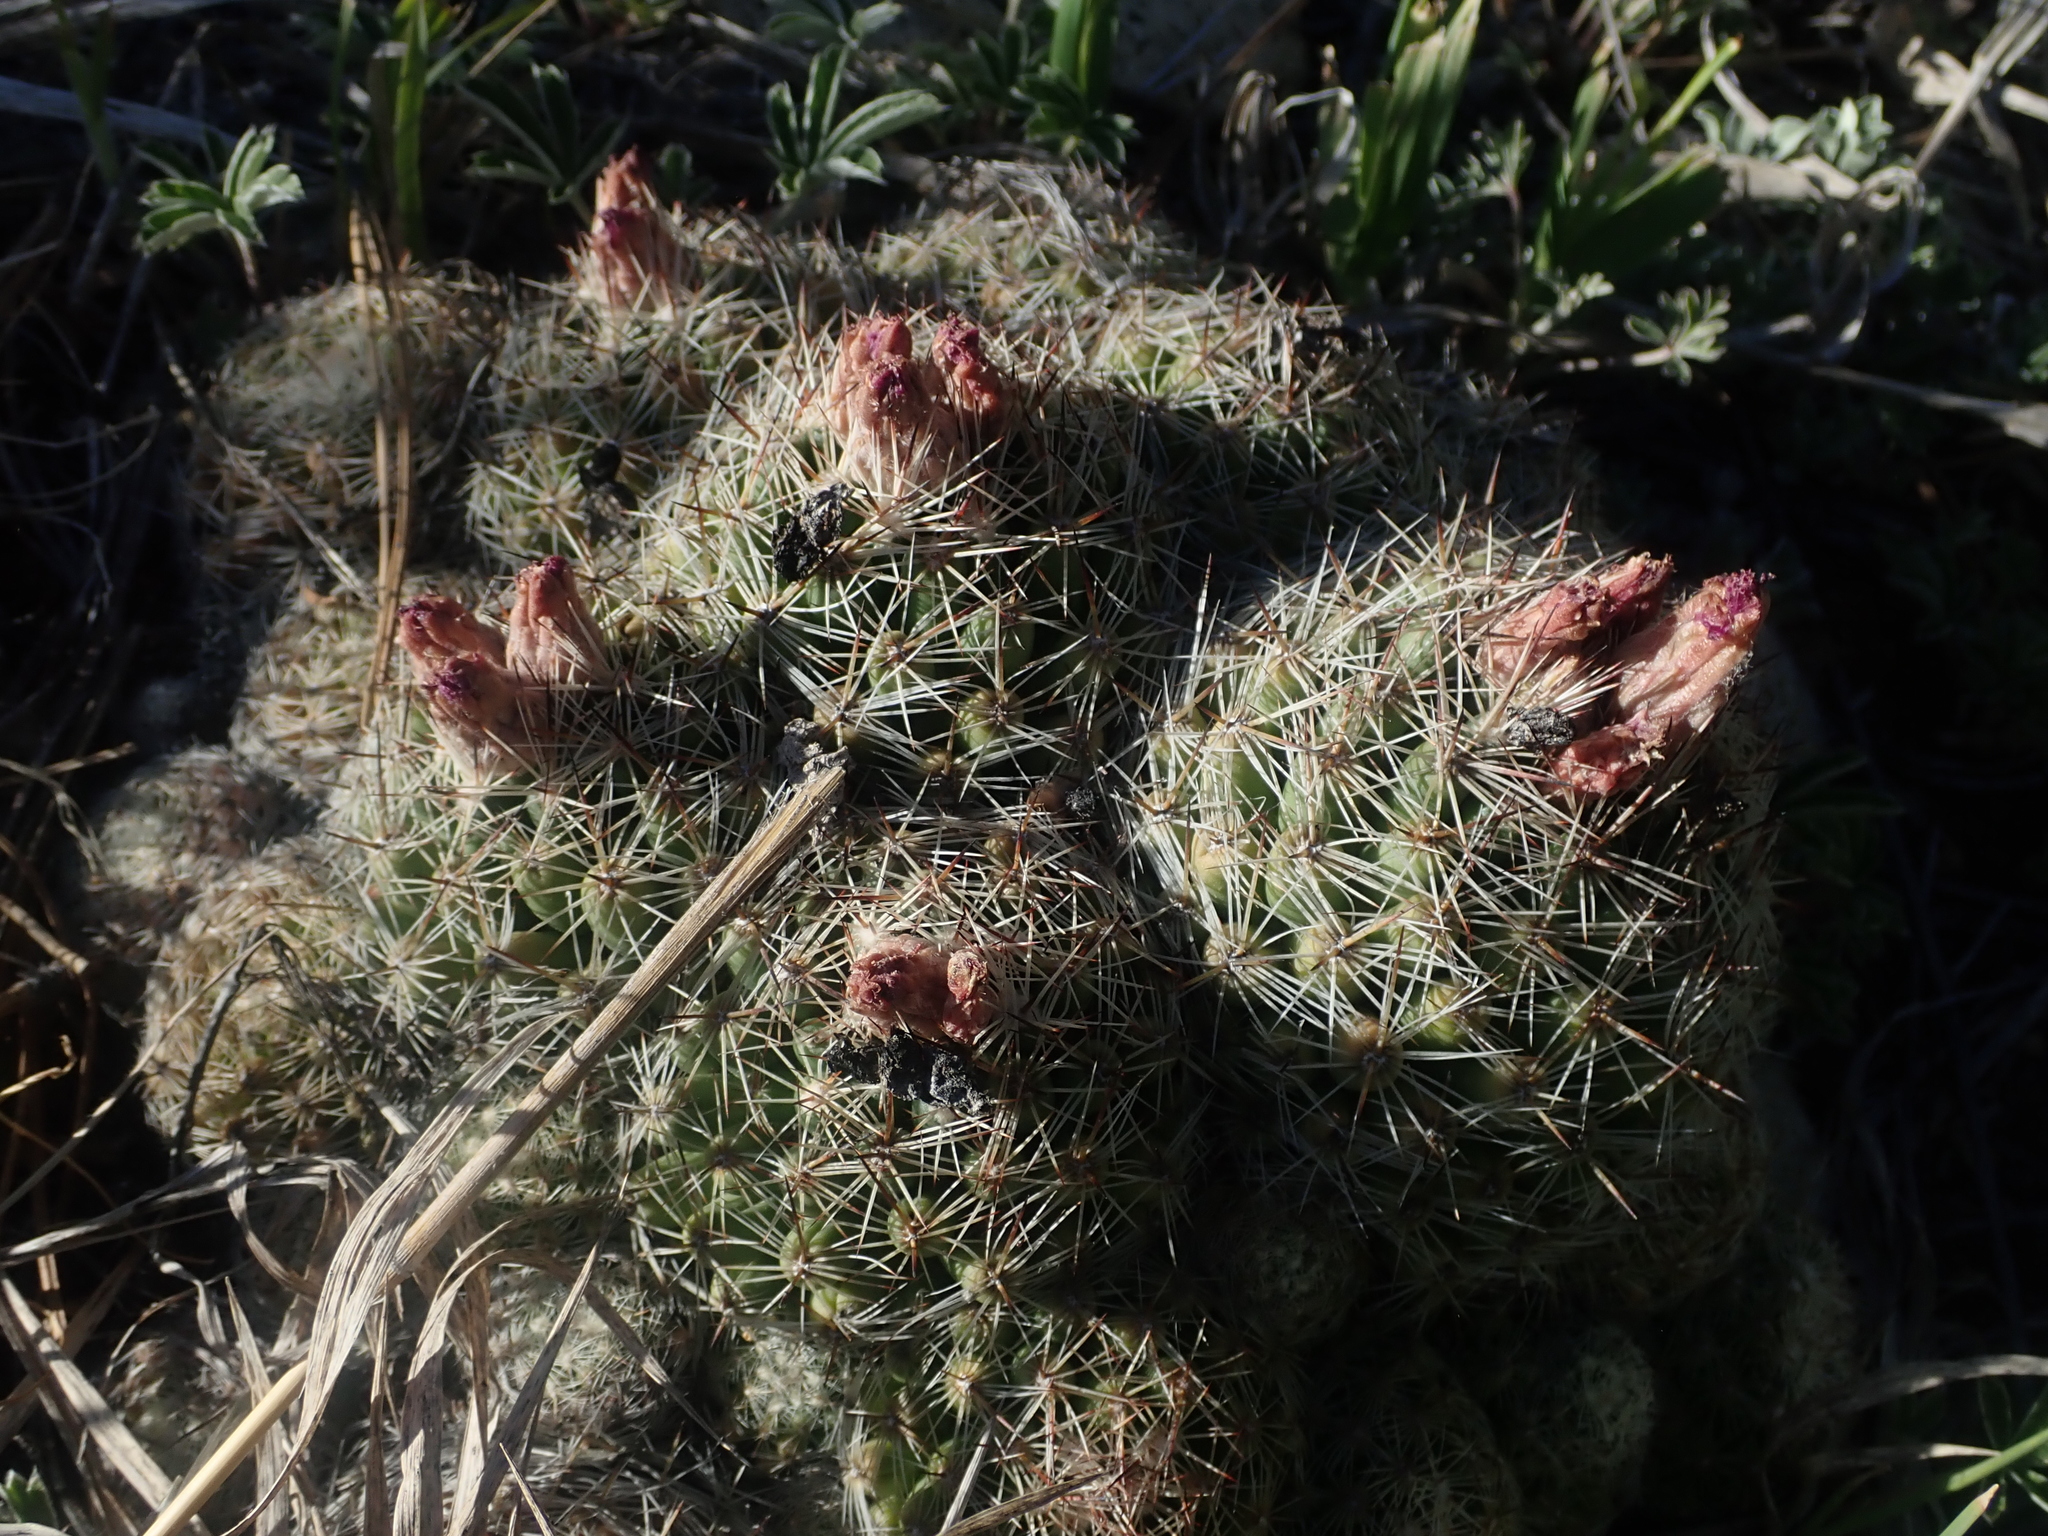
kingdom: Plantae
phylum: Tracheophyta
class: Magnoliopsida
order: Caryophyllales
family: Cactaceae
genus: Pelecyphora
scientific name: Pelecyphora vivipara
